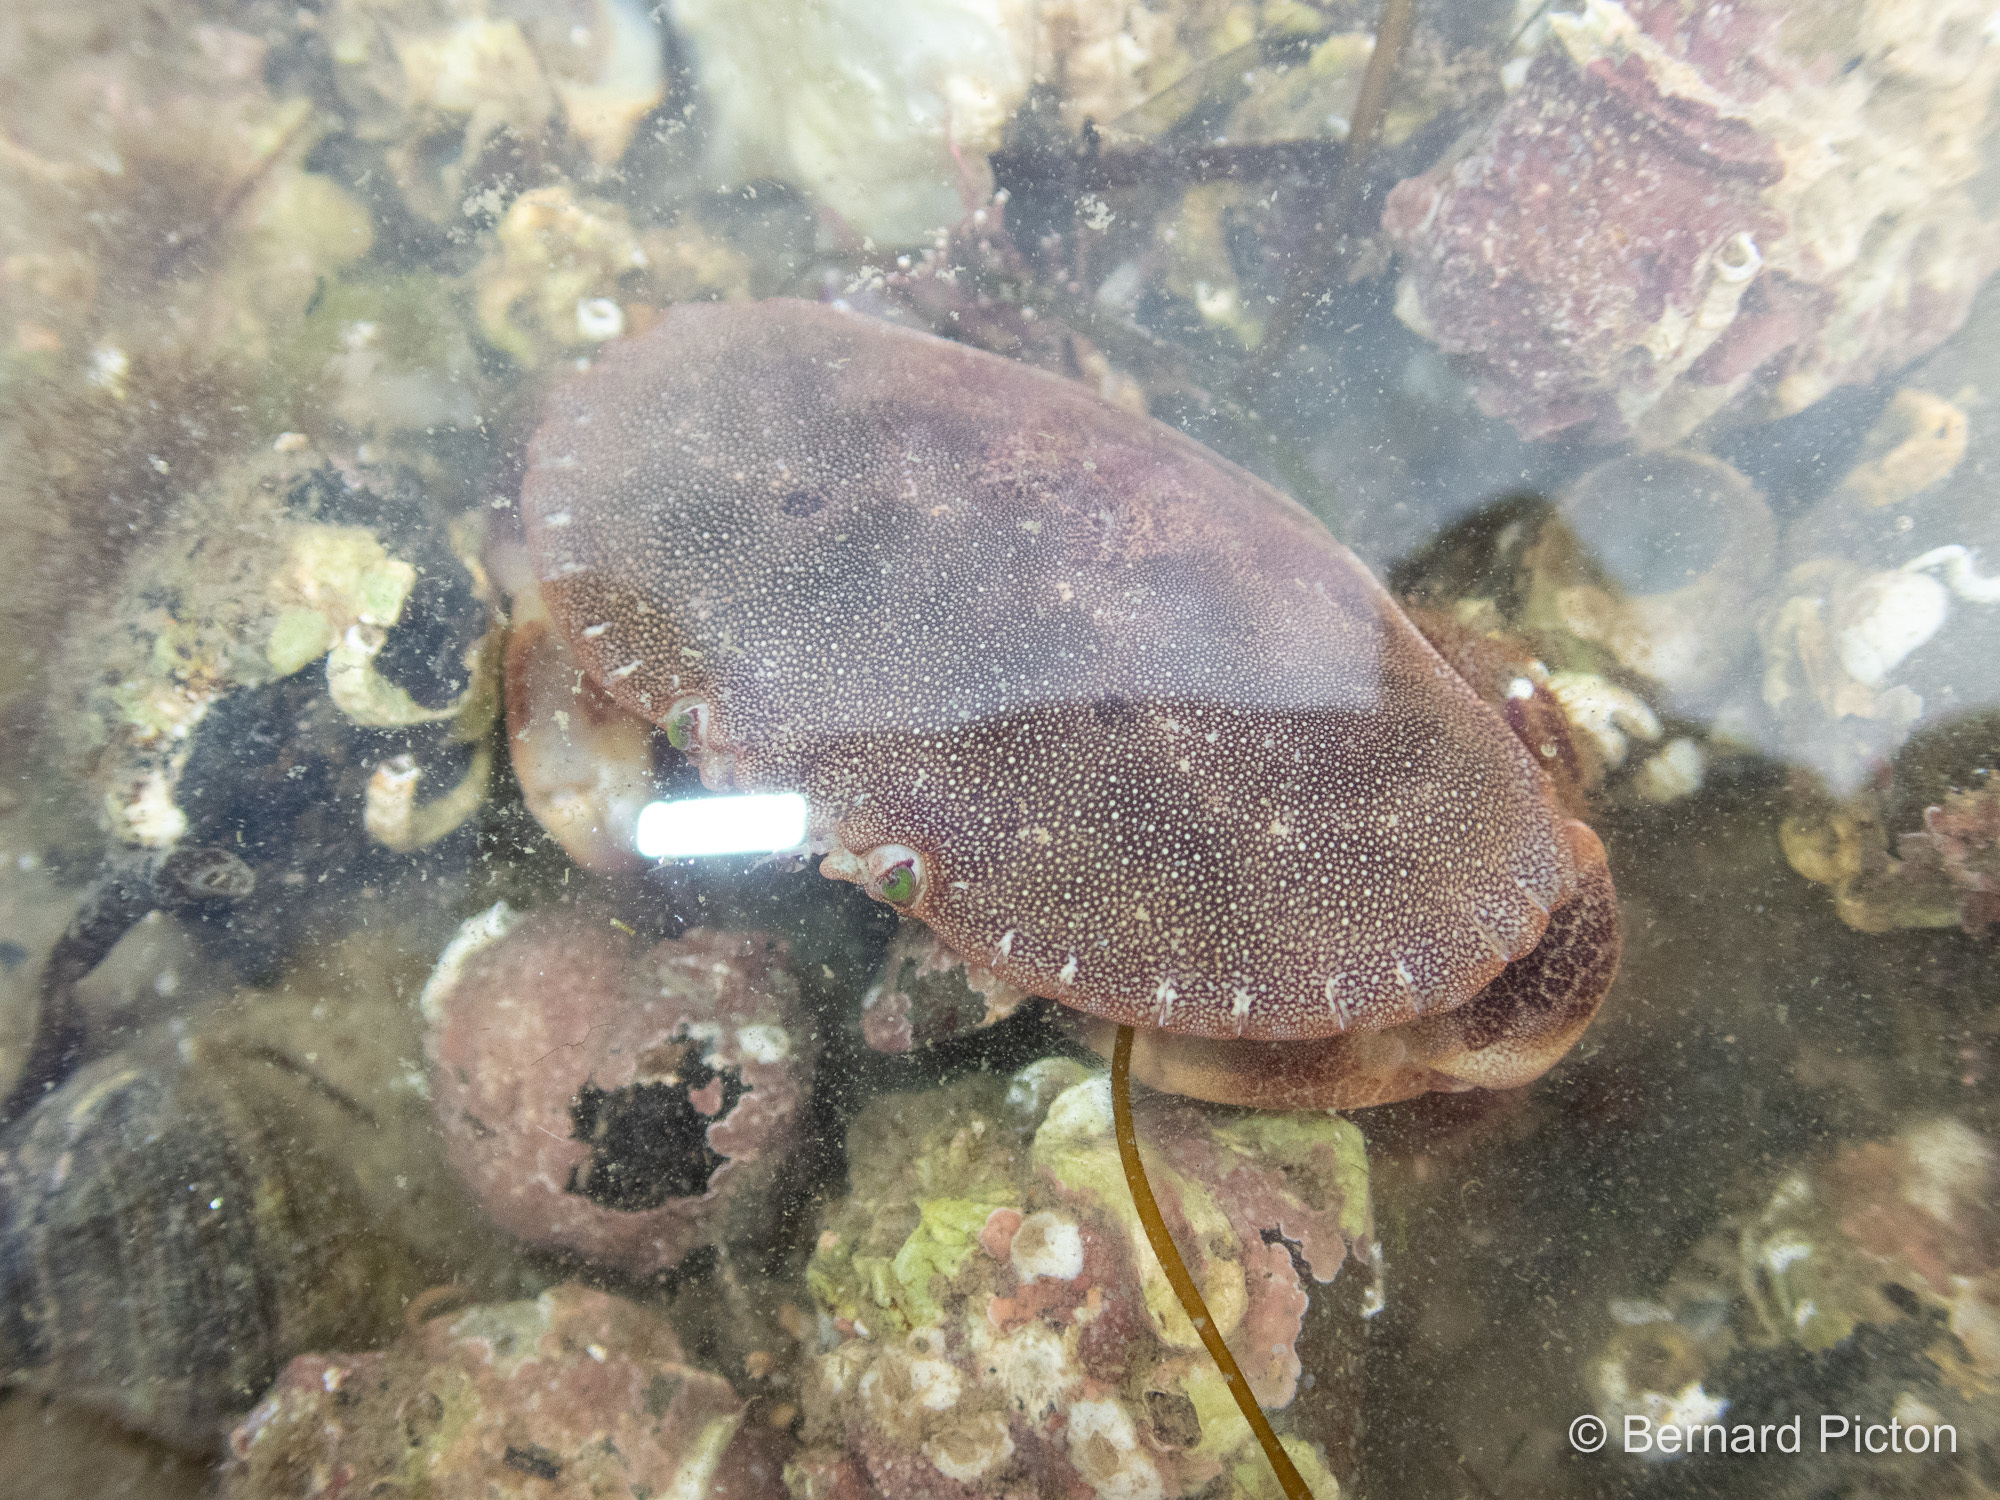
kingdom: Animalia
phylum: Arthropoda
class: Malacostraca
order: Decapoda
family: Cancridae
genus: Cancer
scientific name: Cancer pagurus
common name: Edible crab
